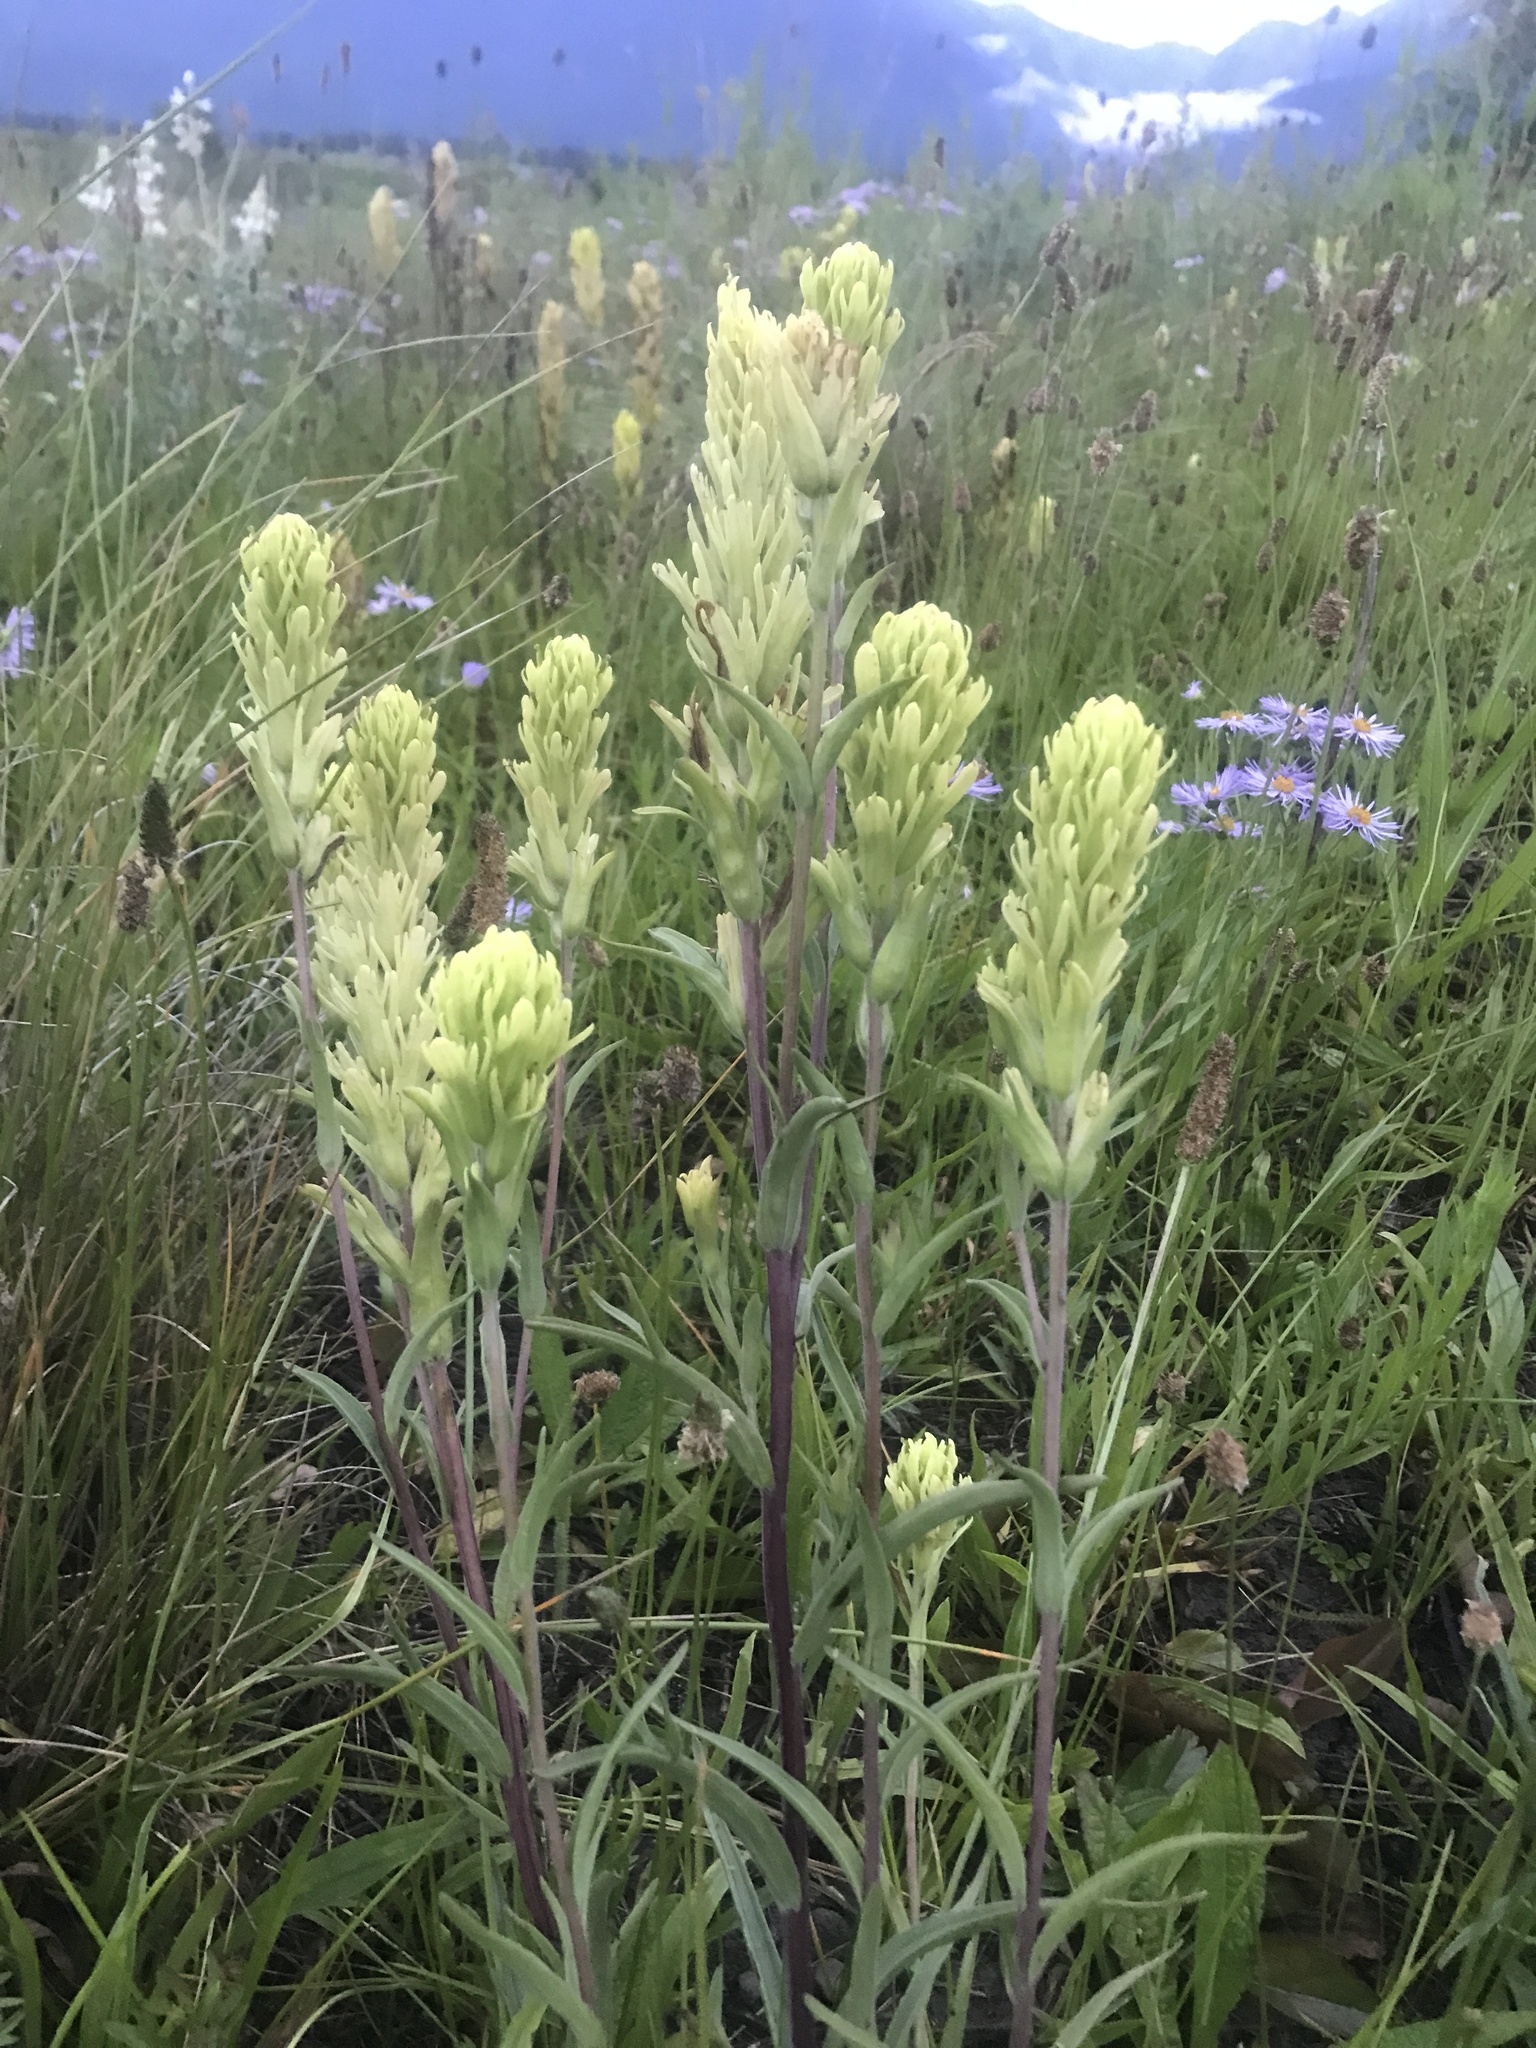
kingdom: Plantae
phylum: Tracheophyta
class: Magnoliopsida
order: Lamiales
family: Orobanchaceae
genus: Castilleja
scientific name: Castilleja lutescens
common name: Yellowish paintbrush
